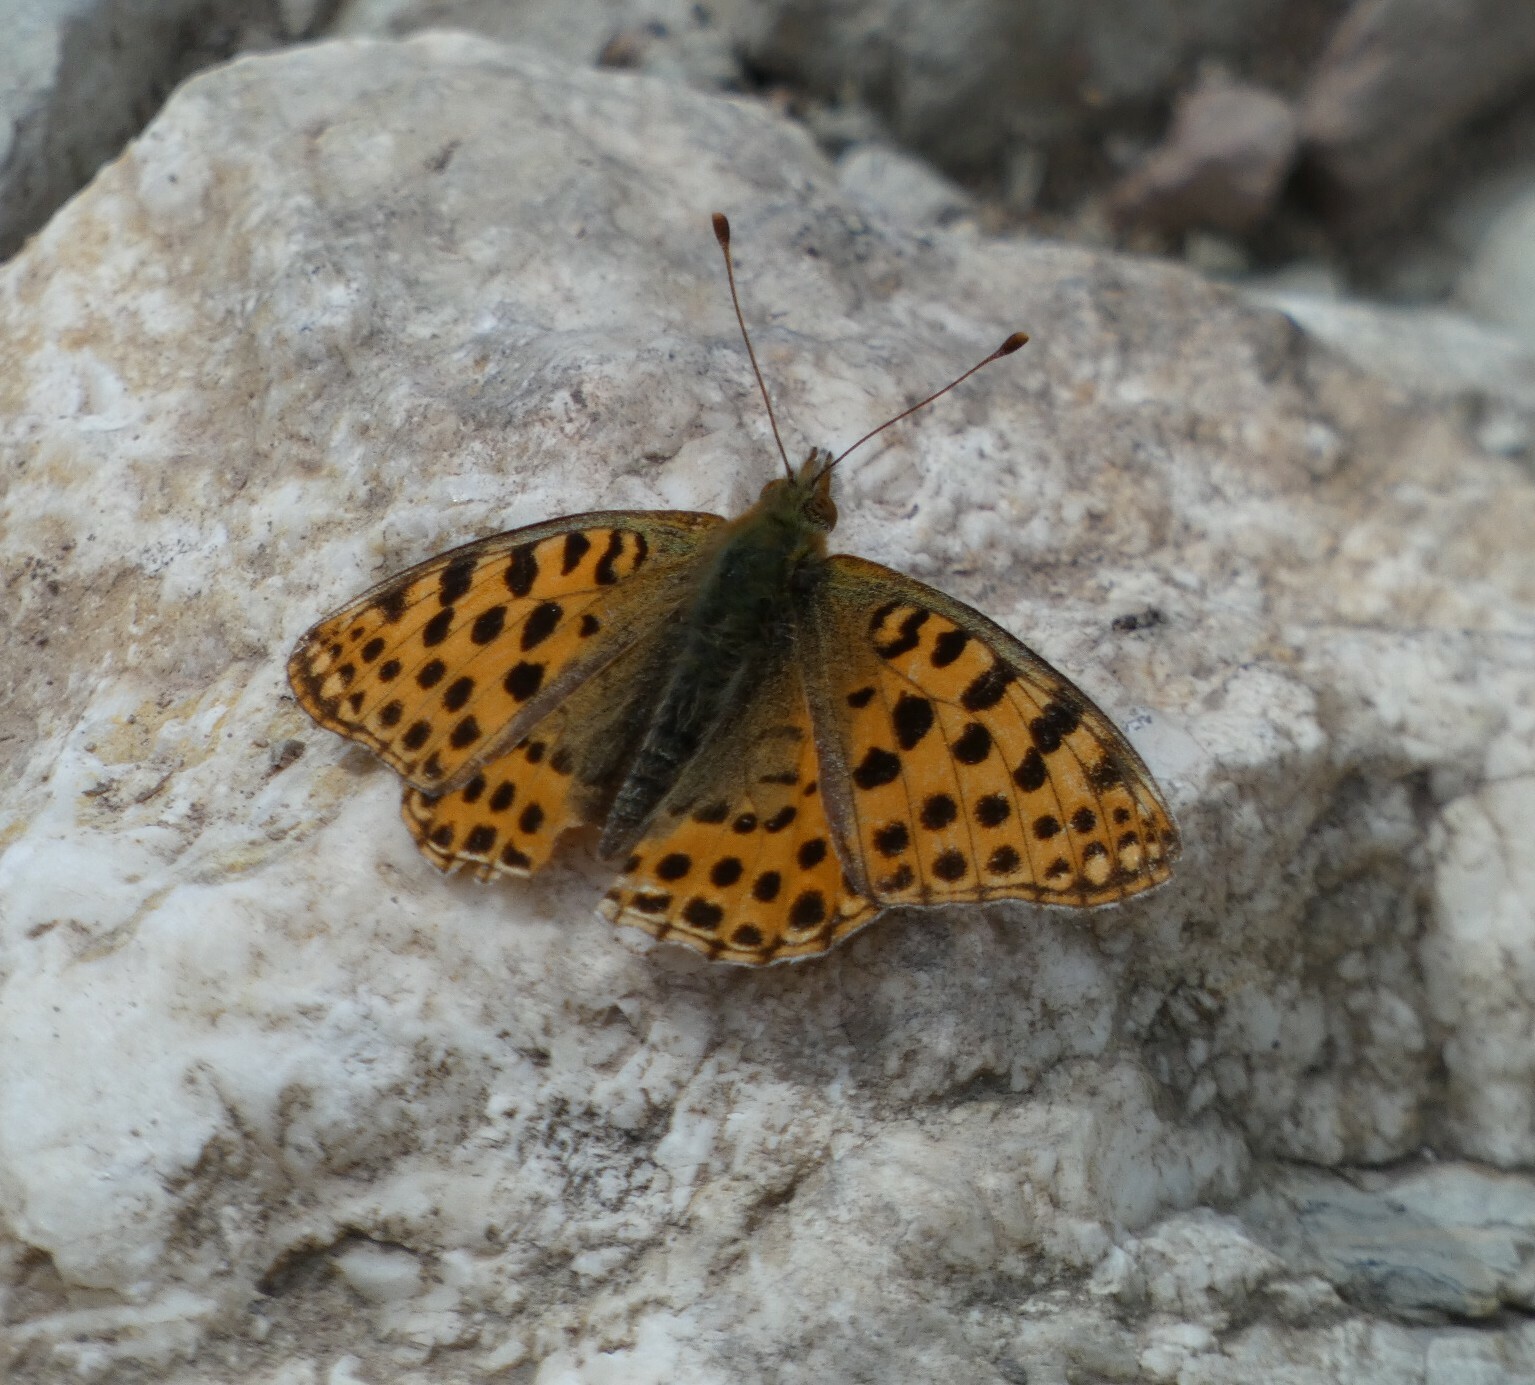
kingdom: Animalia
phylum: Arthropoda
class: Insecta
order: Lepidoptera
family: Nymphalidae
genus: Issoria
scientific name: Issoria lathonia
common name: Queen of spain fritillary
